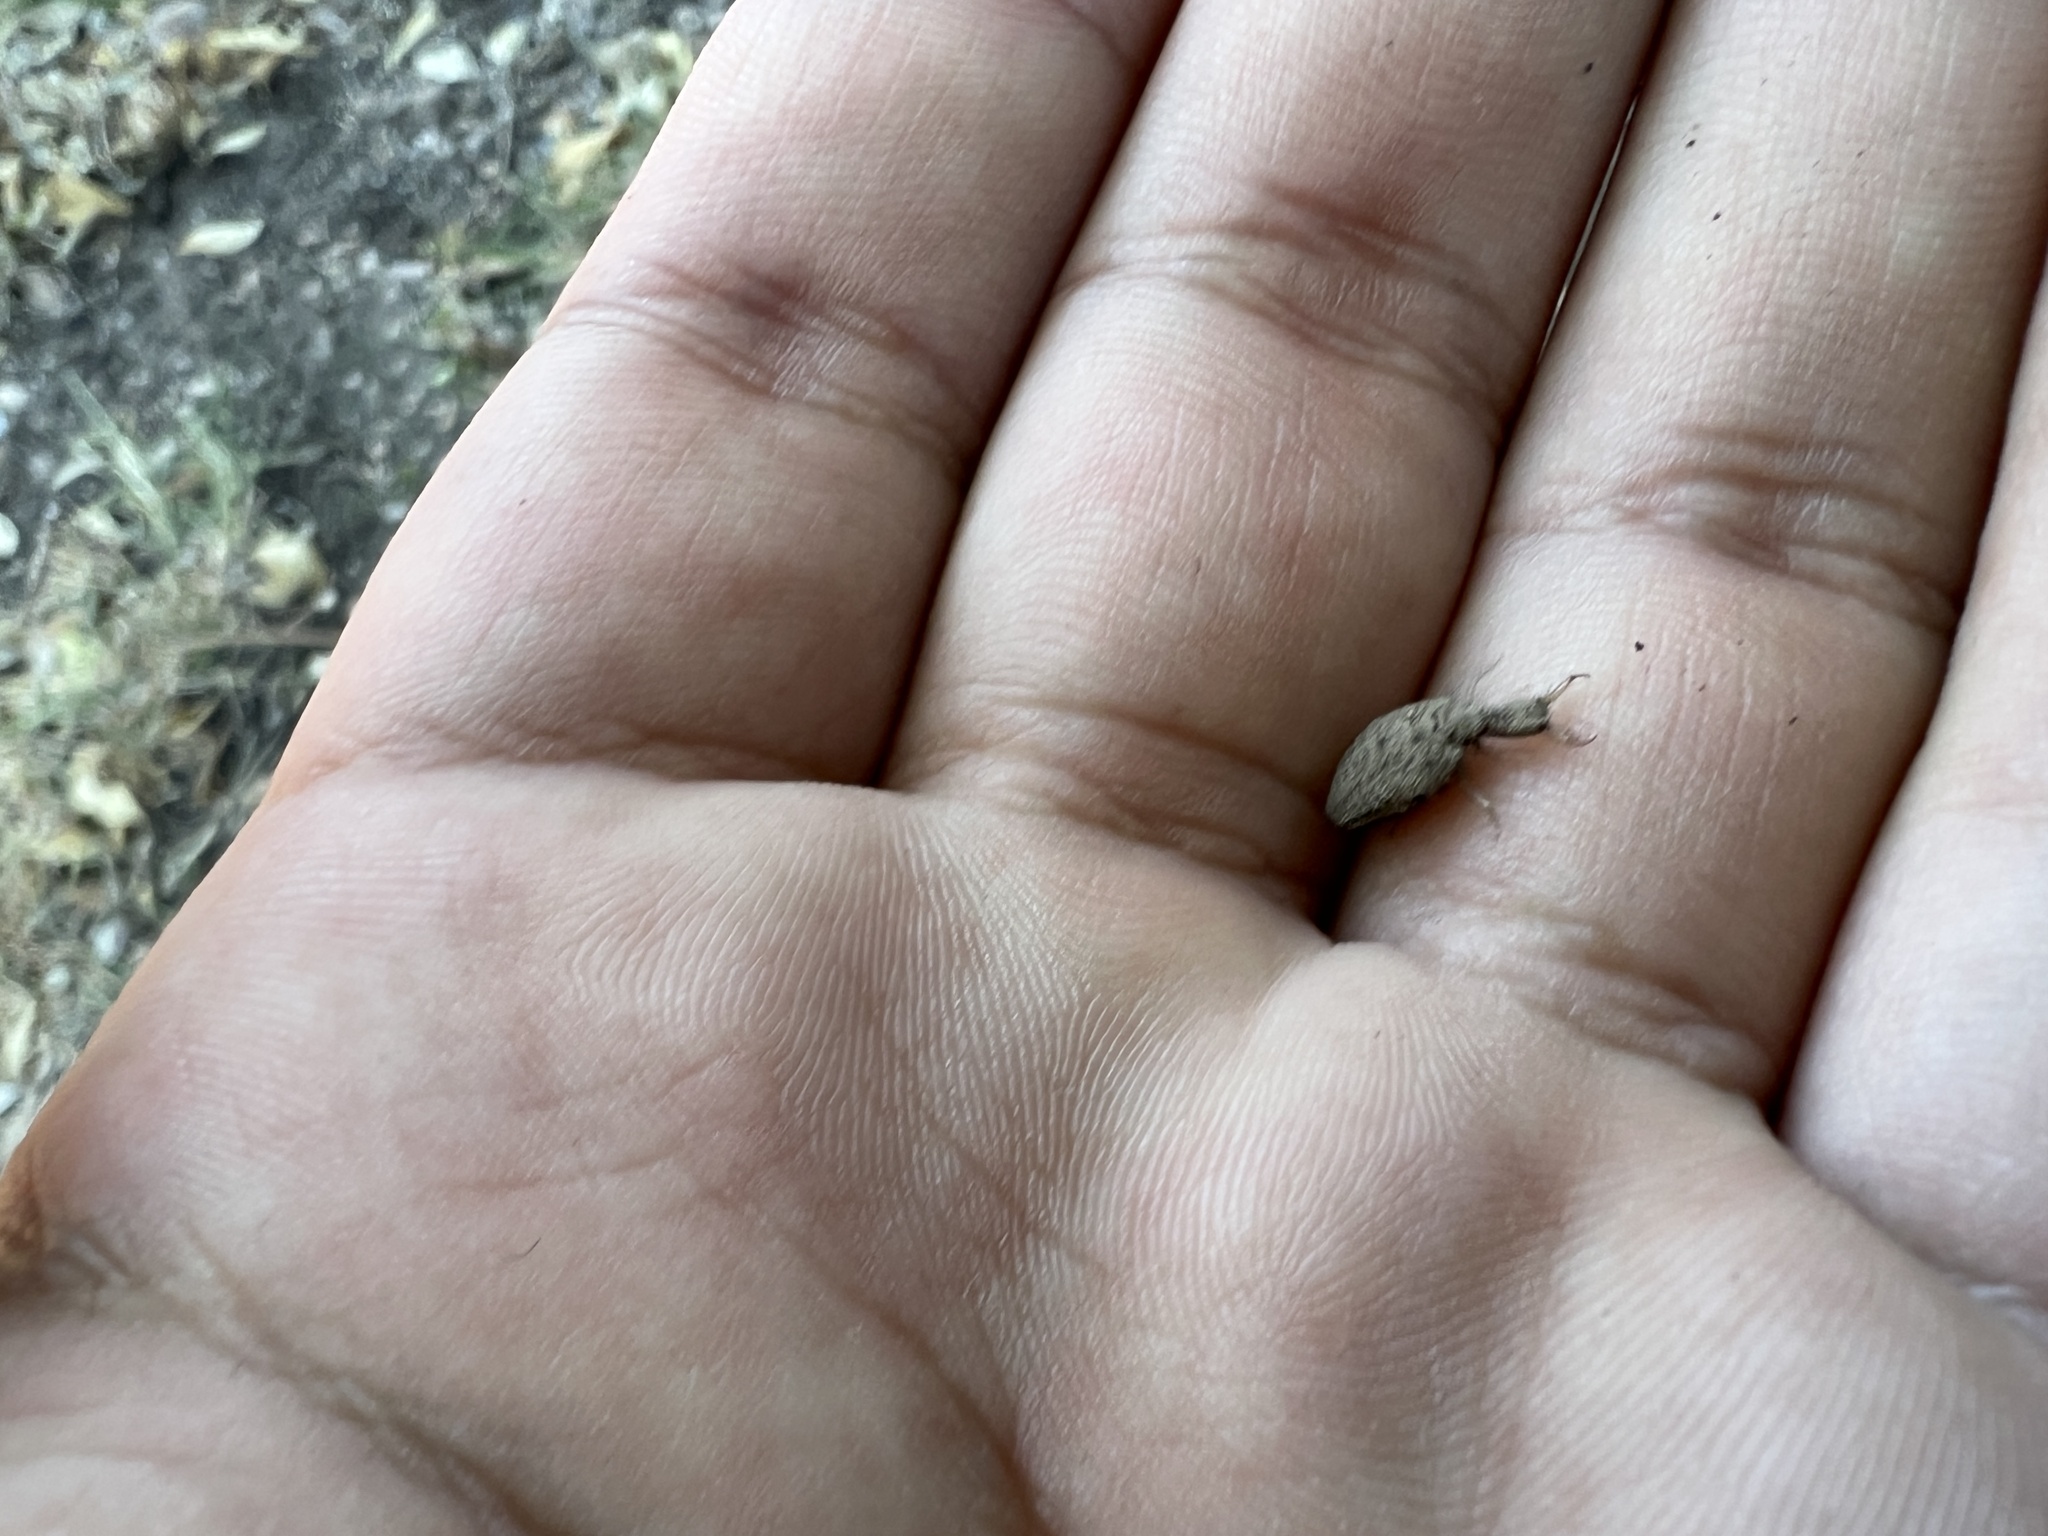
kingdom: Animalia
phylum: Arthropoda
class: Insecta
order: Neuroptera
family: Myrmeleontidae
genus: Brachynemurus
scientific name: Brachynemurus sackeni
